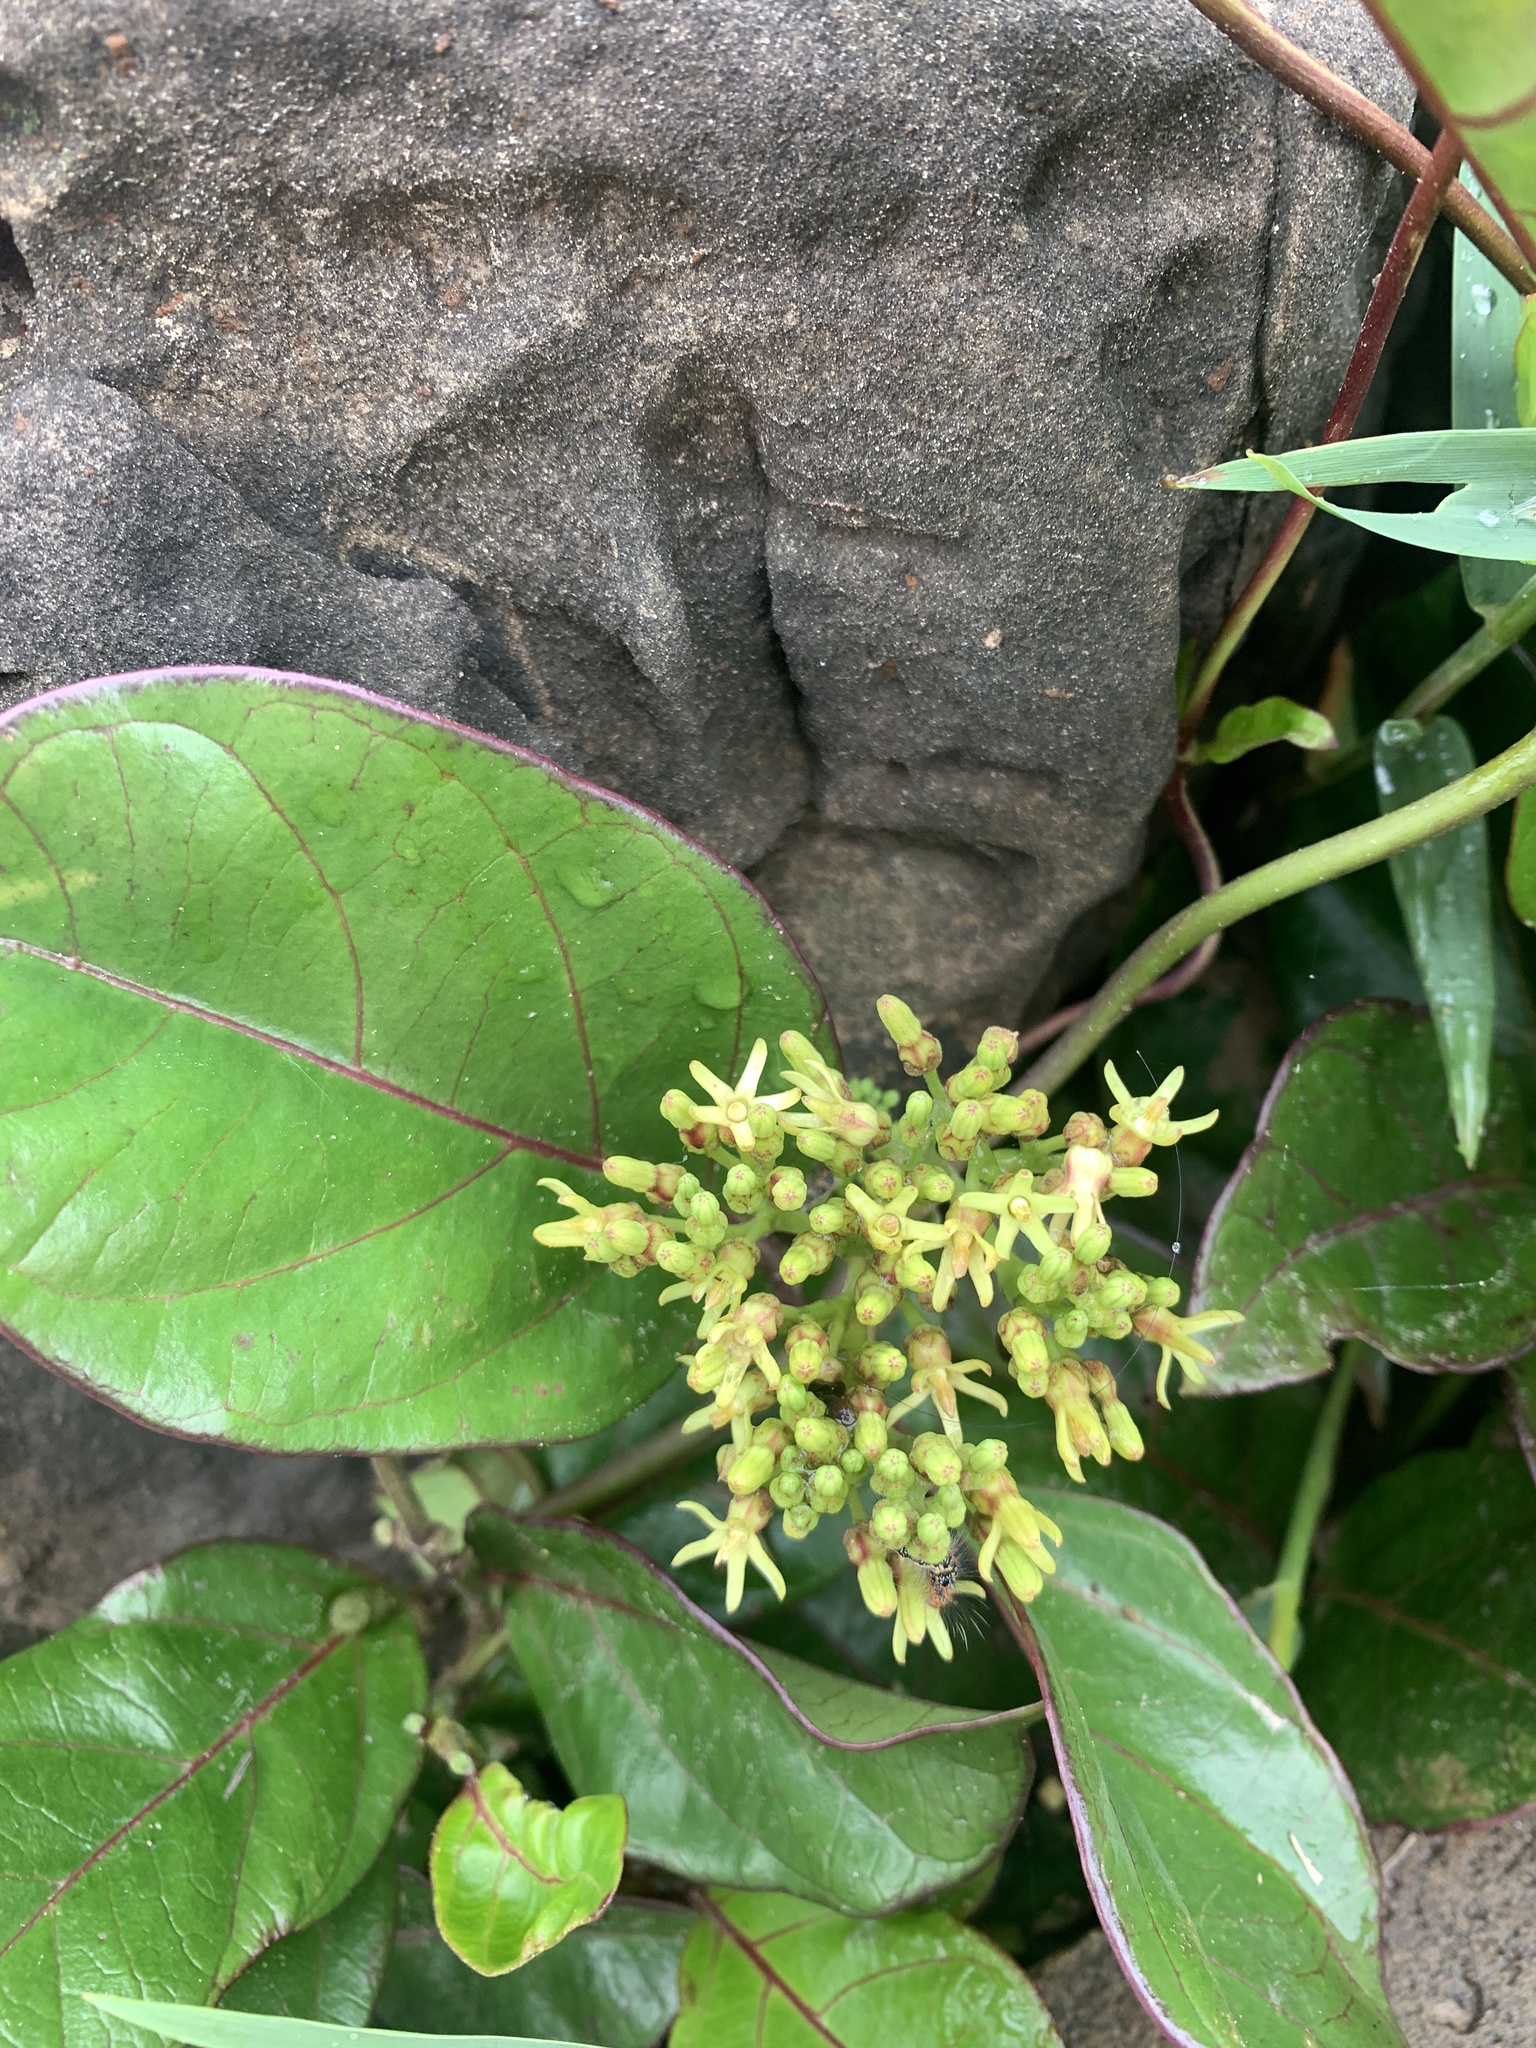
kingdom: Plantae
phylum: Tracheophyta
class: Magnoliopsida
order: Gentianales
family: Apocynaceae
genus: Parsonsia
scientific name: Parsonsia alboflavescens
